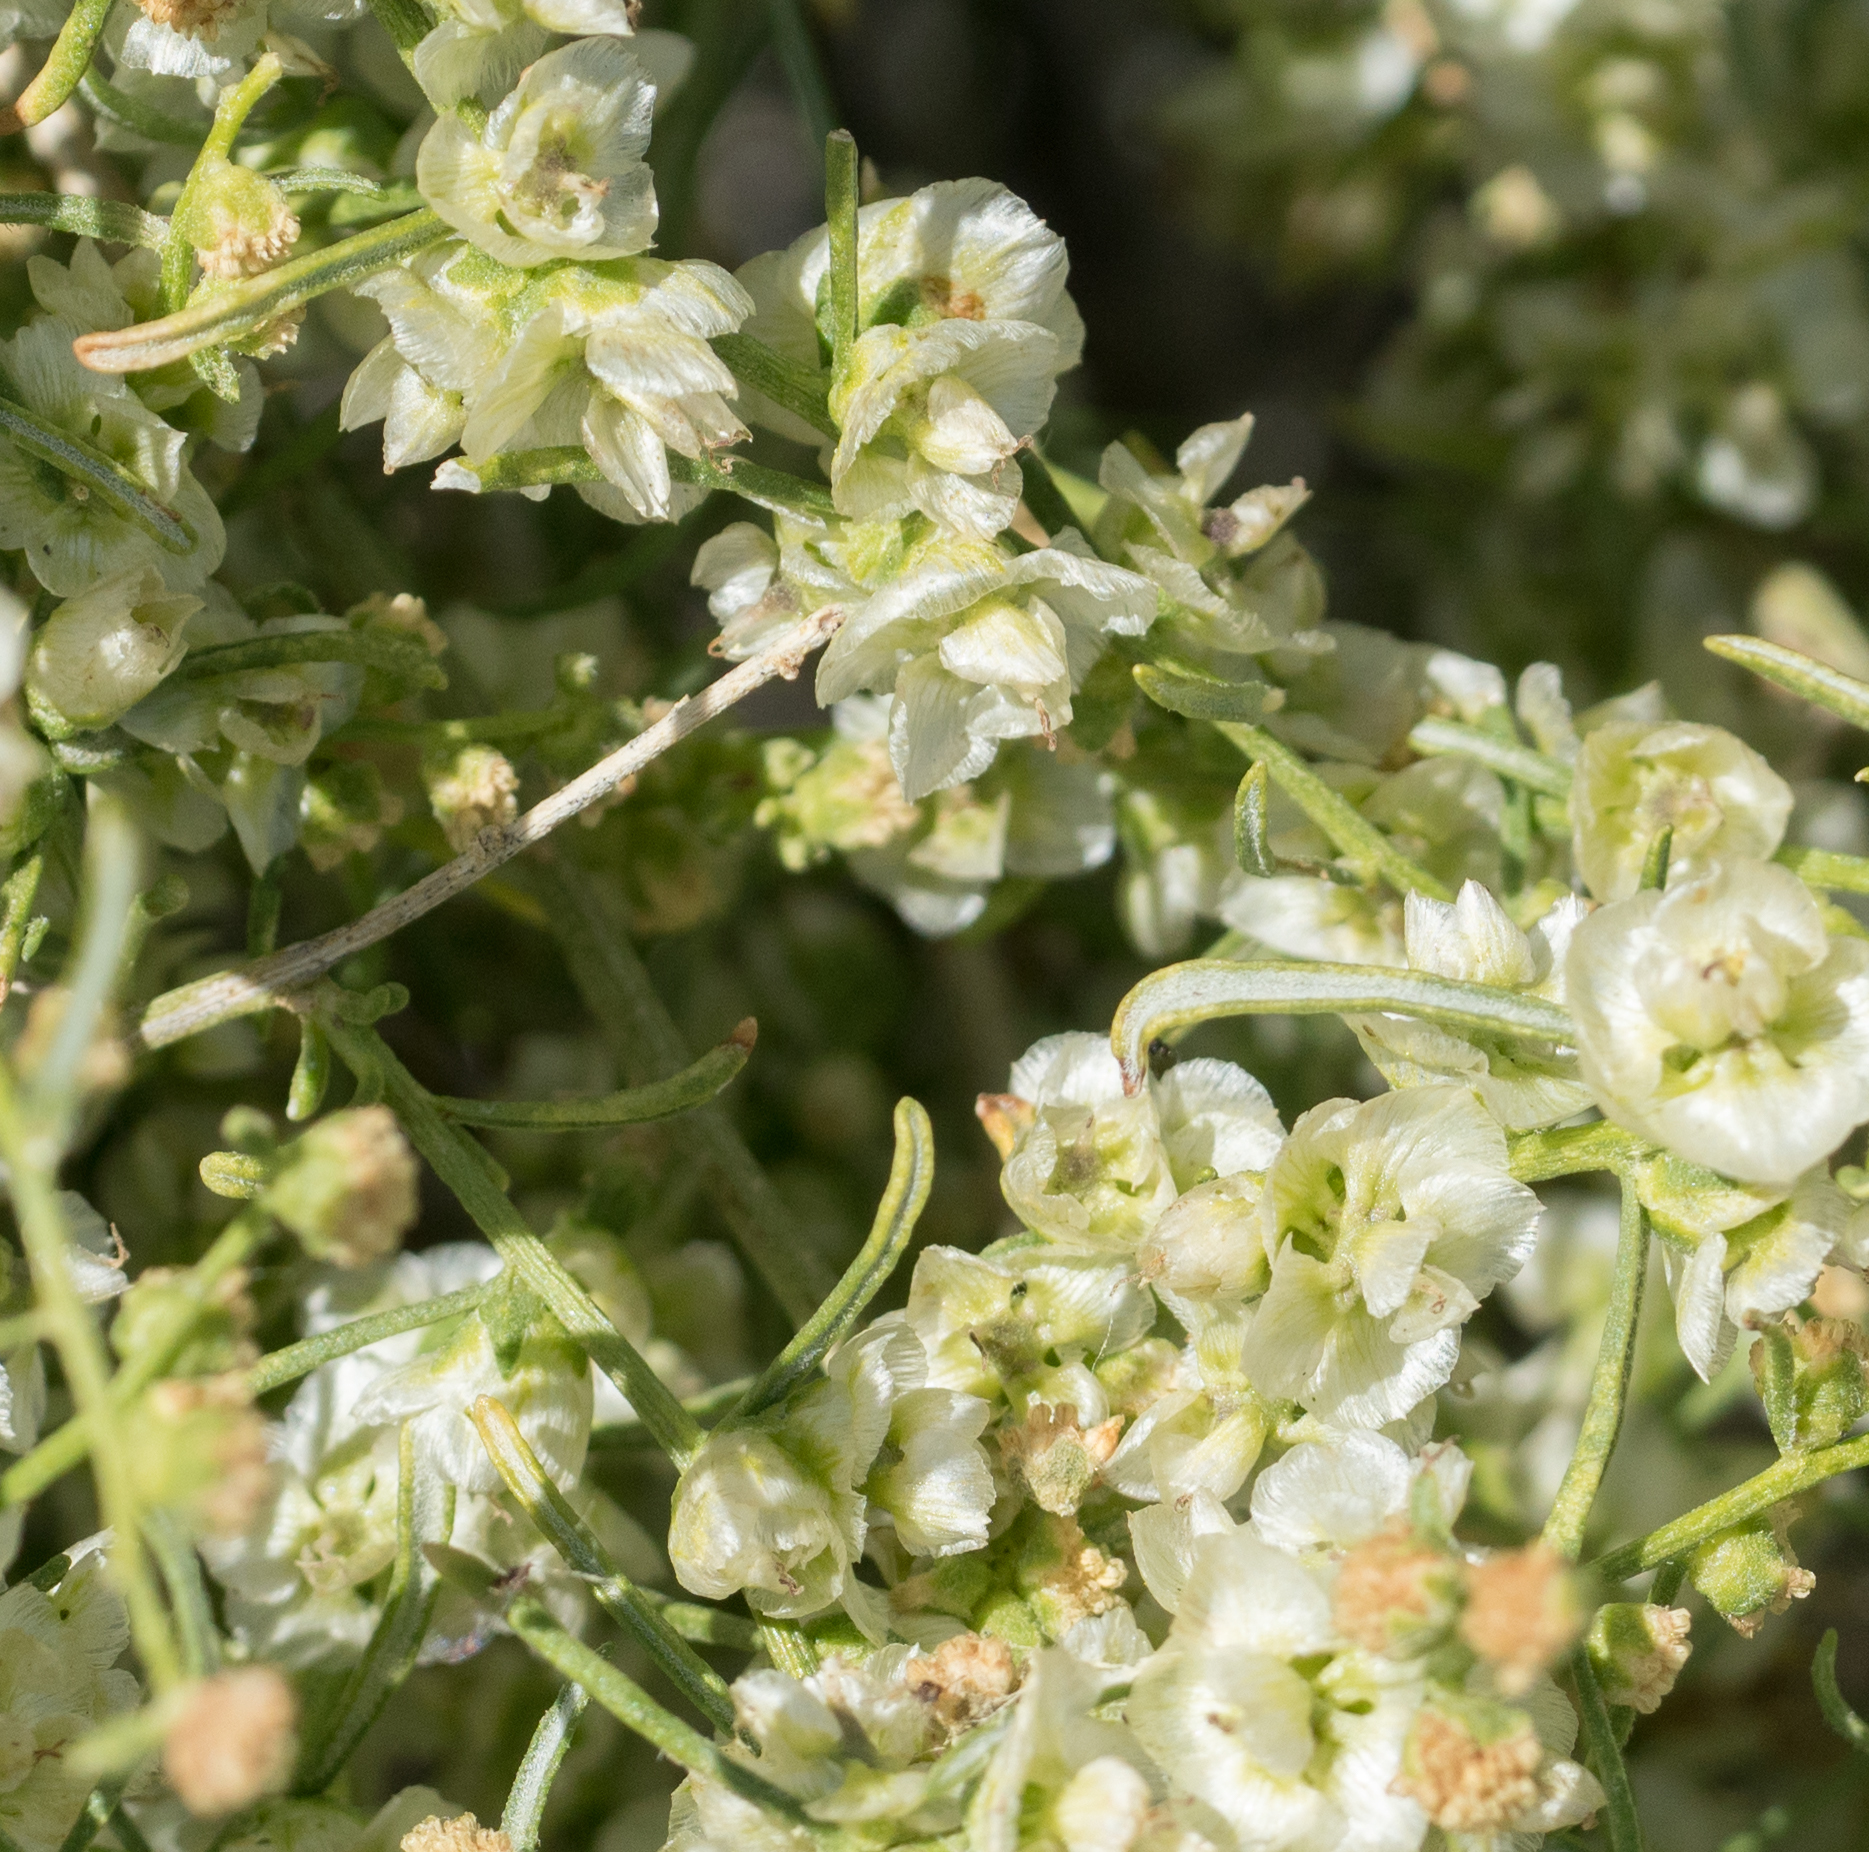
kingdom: Plantae
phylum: Tracheophyta
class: Magnoliopsida
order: Asterales
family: Asteraceae
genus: Ambrosia
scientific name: Ambrosia salsola
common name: Burrobrush
